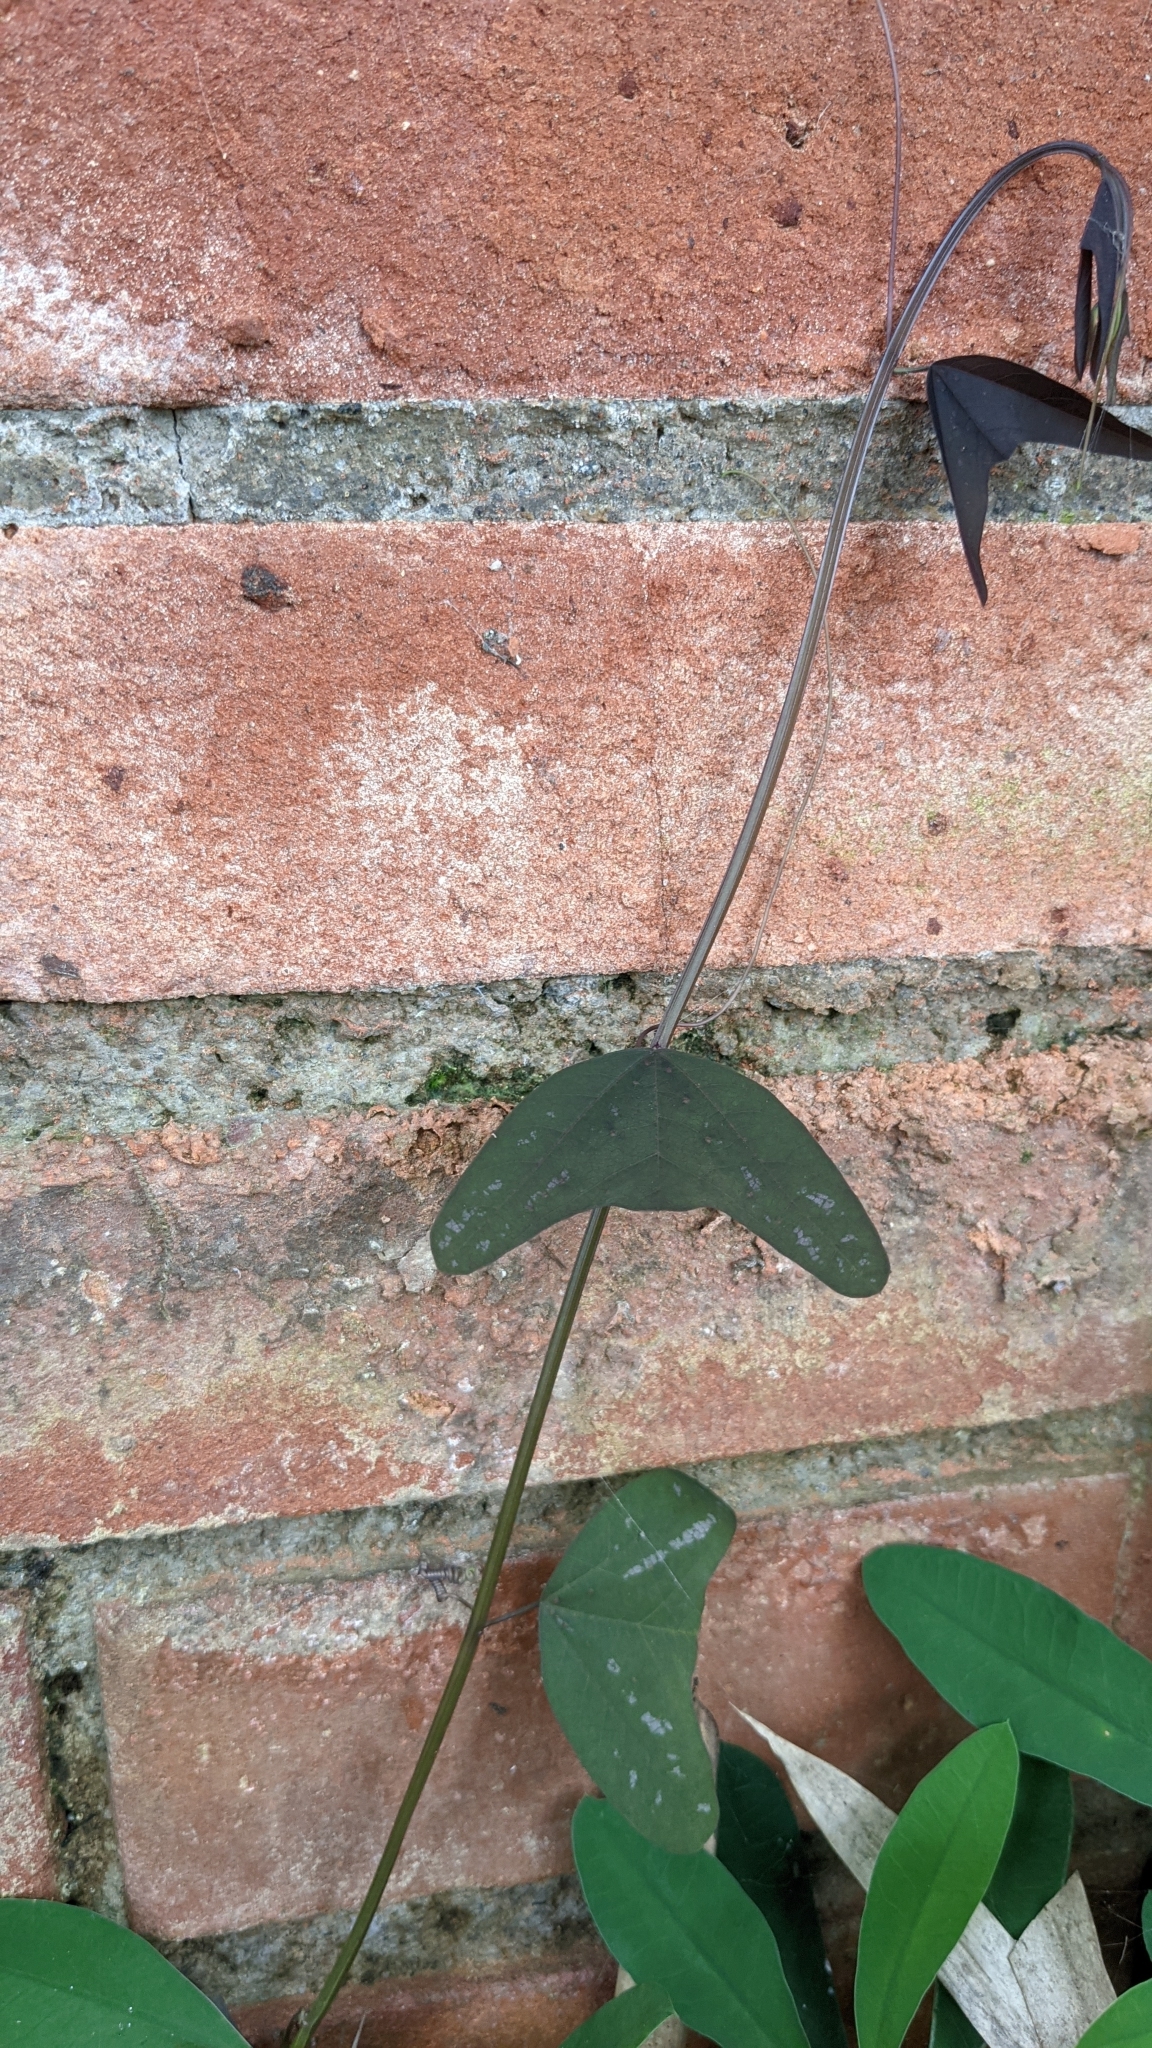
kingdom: Plantae
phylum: Tracheophyta
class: Magnoliopsida
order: Malpighiales
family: Passifloraceae
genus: Passiflora
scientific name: Passiflora biflora
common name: Twoflower passionflower
